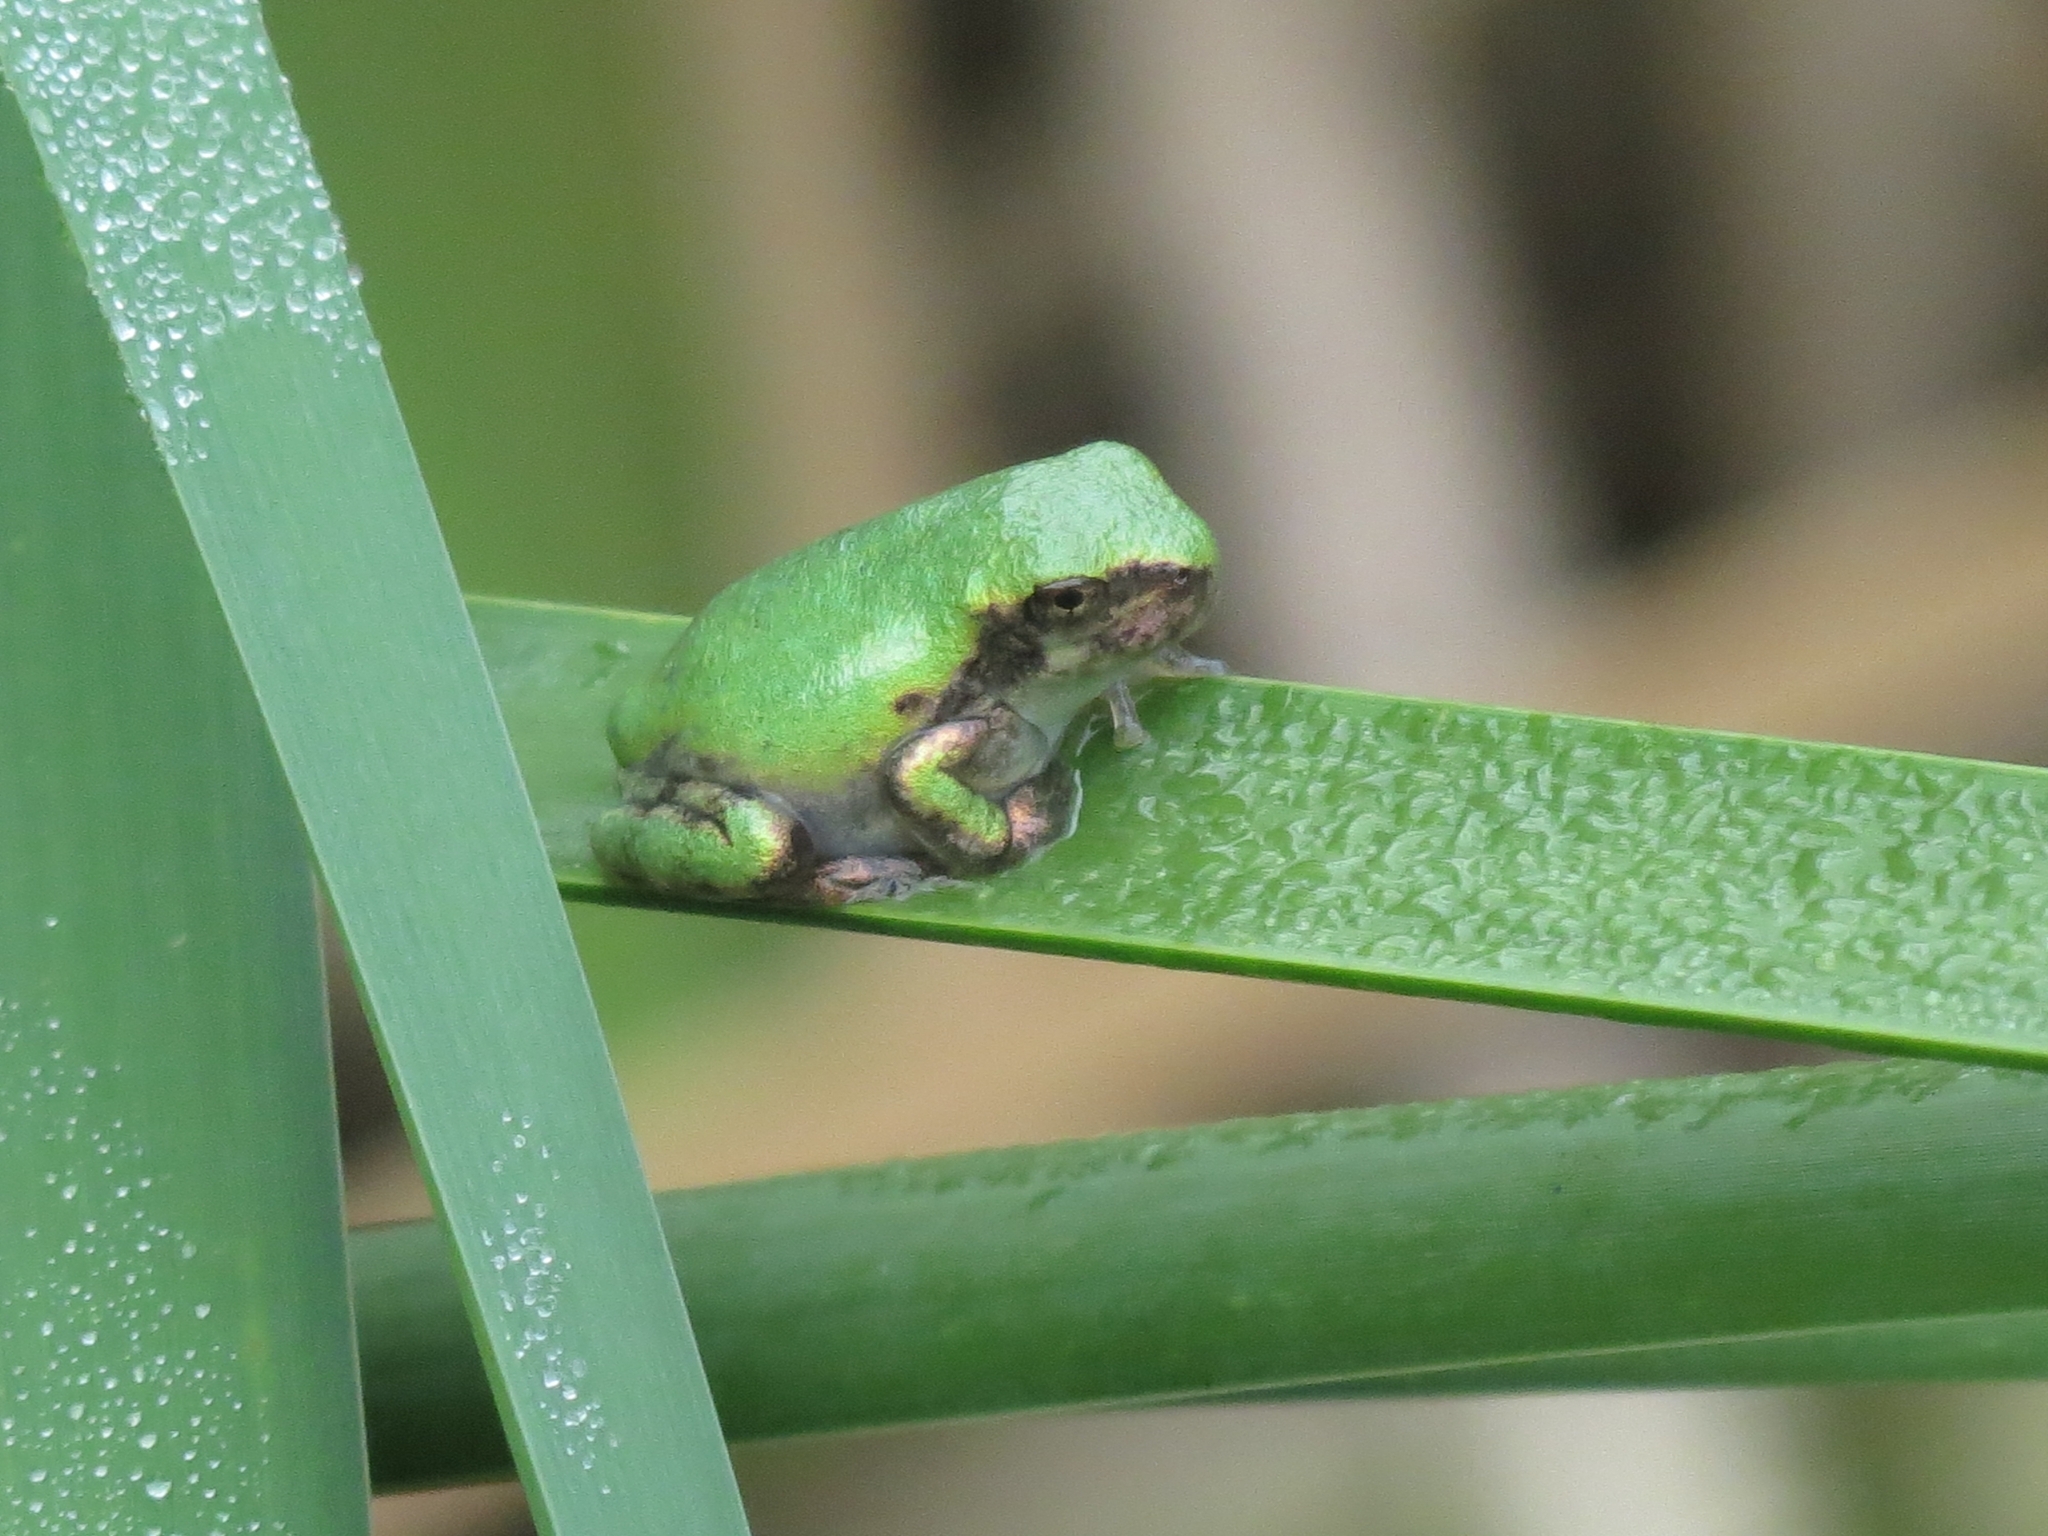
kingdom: Animalia
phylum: Chordata
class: Amphibia
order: Anura
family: Hylidae
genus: Dryophytes
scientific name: Dryophytes versicolor
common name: Gray treefrog
